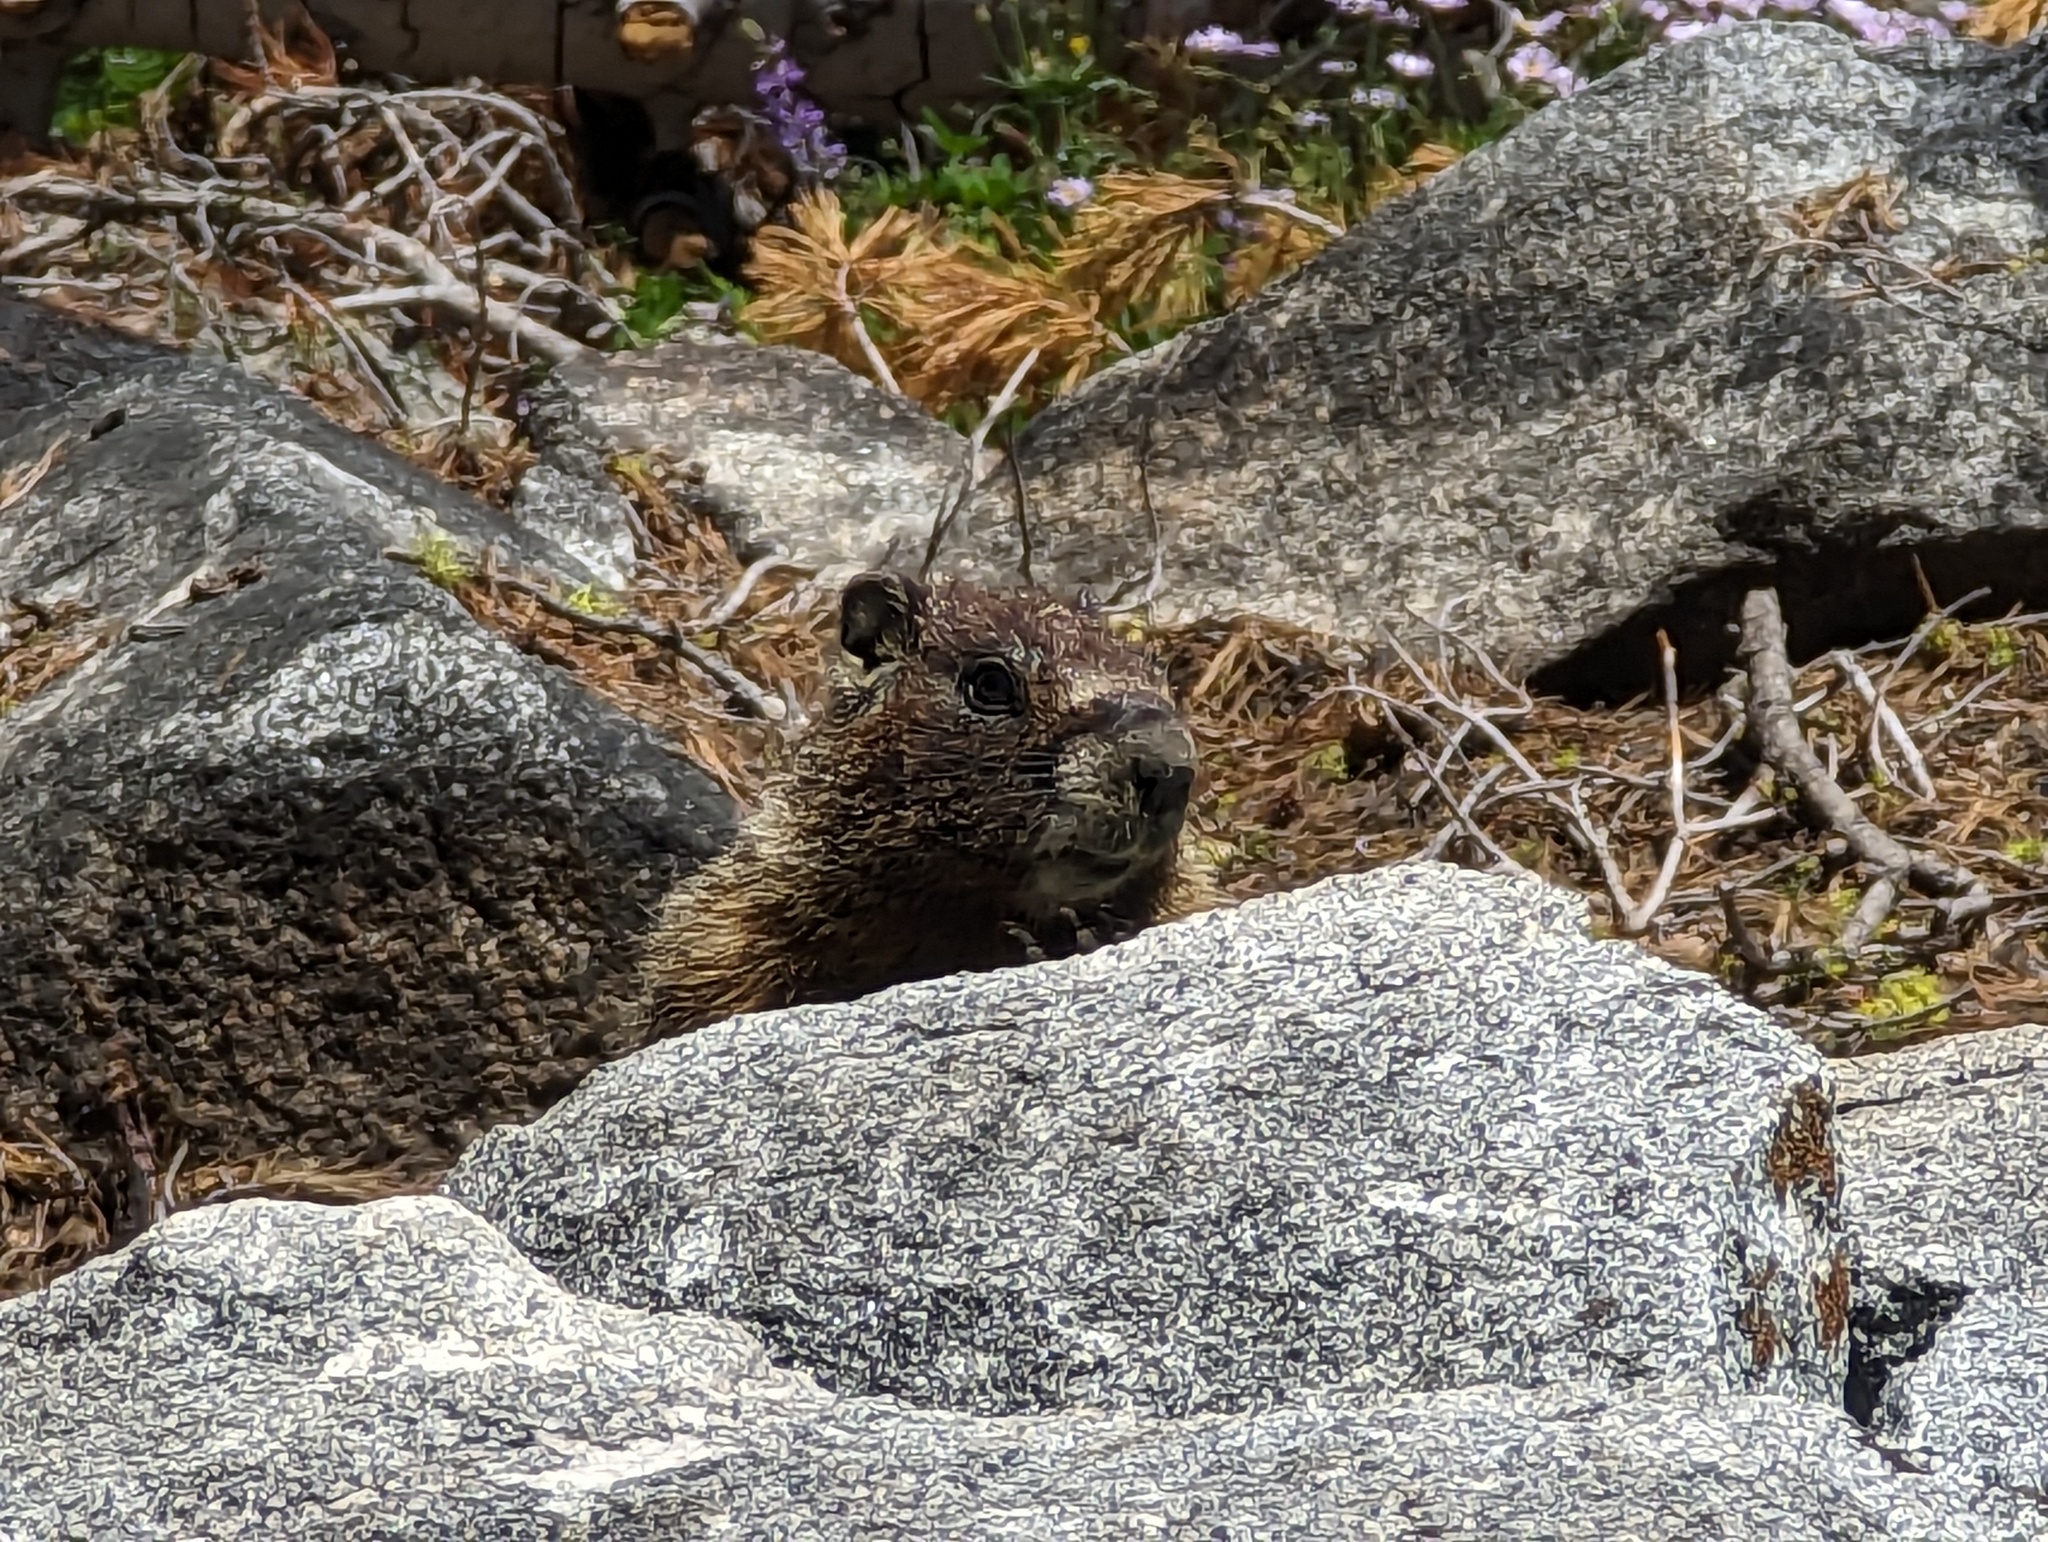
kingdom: Animalia
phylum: Chordata
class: Mammalia
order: Rodentia
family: Sciuridae
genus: Marmota
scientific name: Marmota flaviventris
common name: Yellow-bellied marmot
